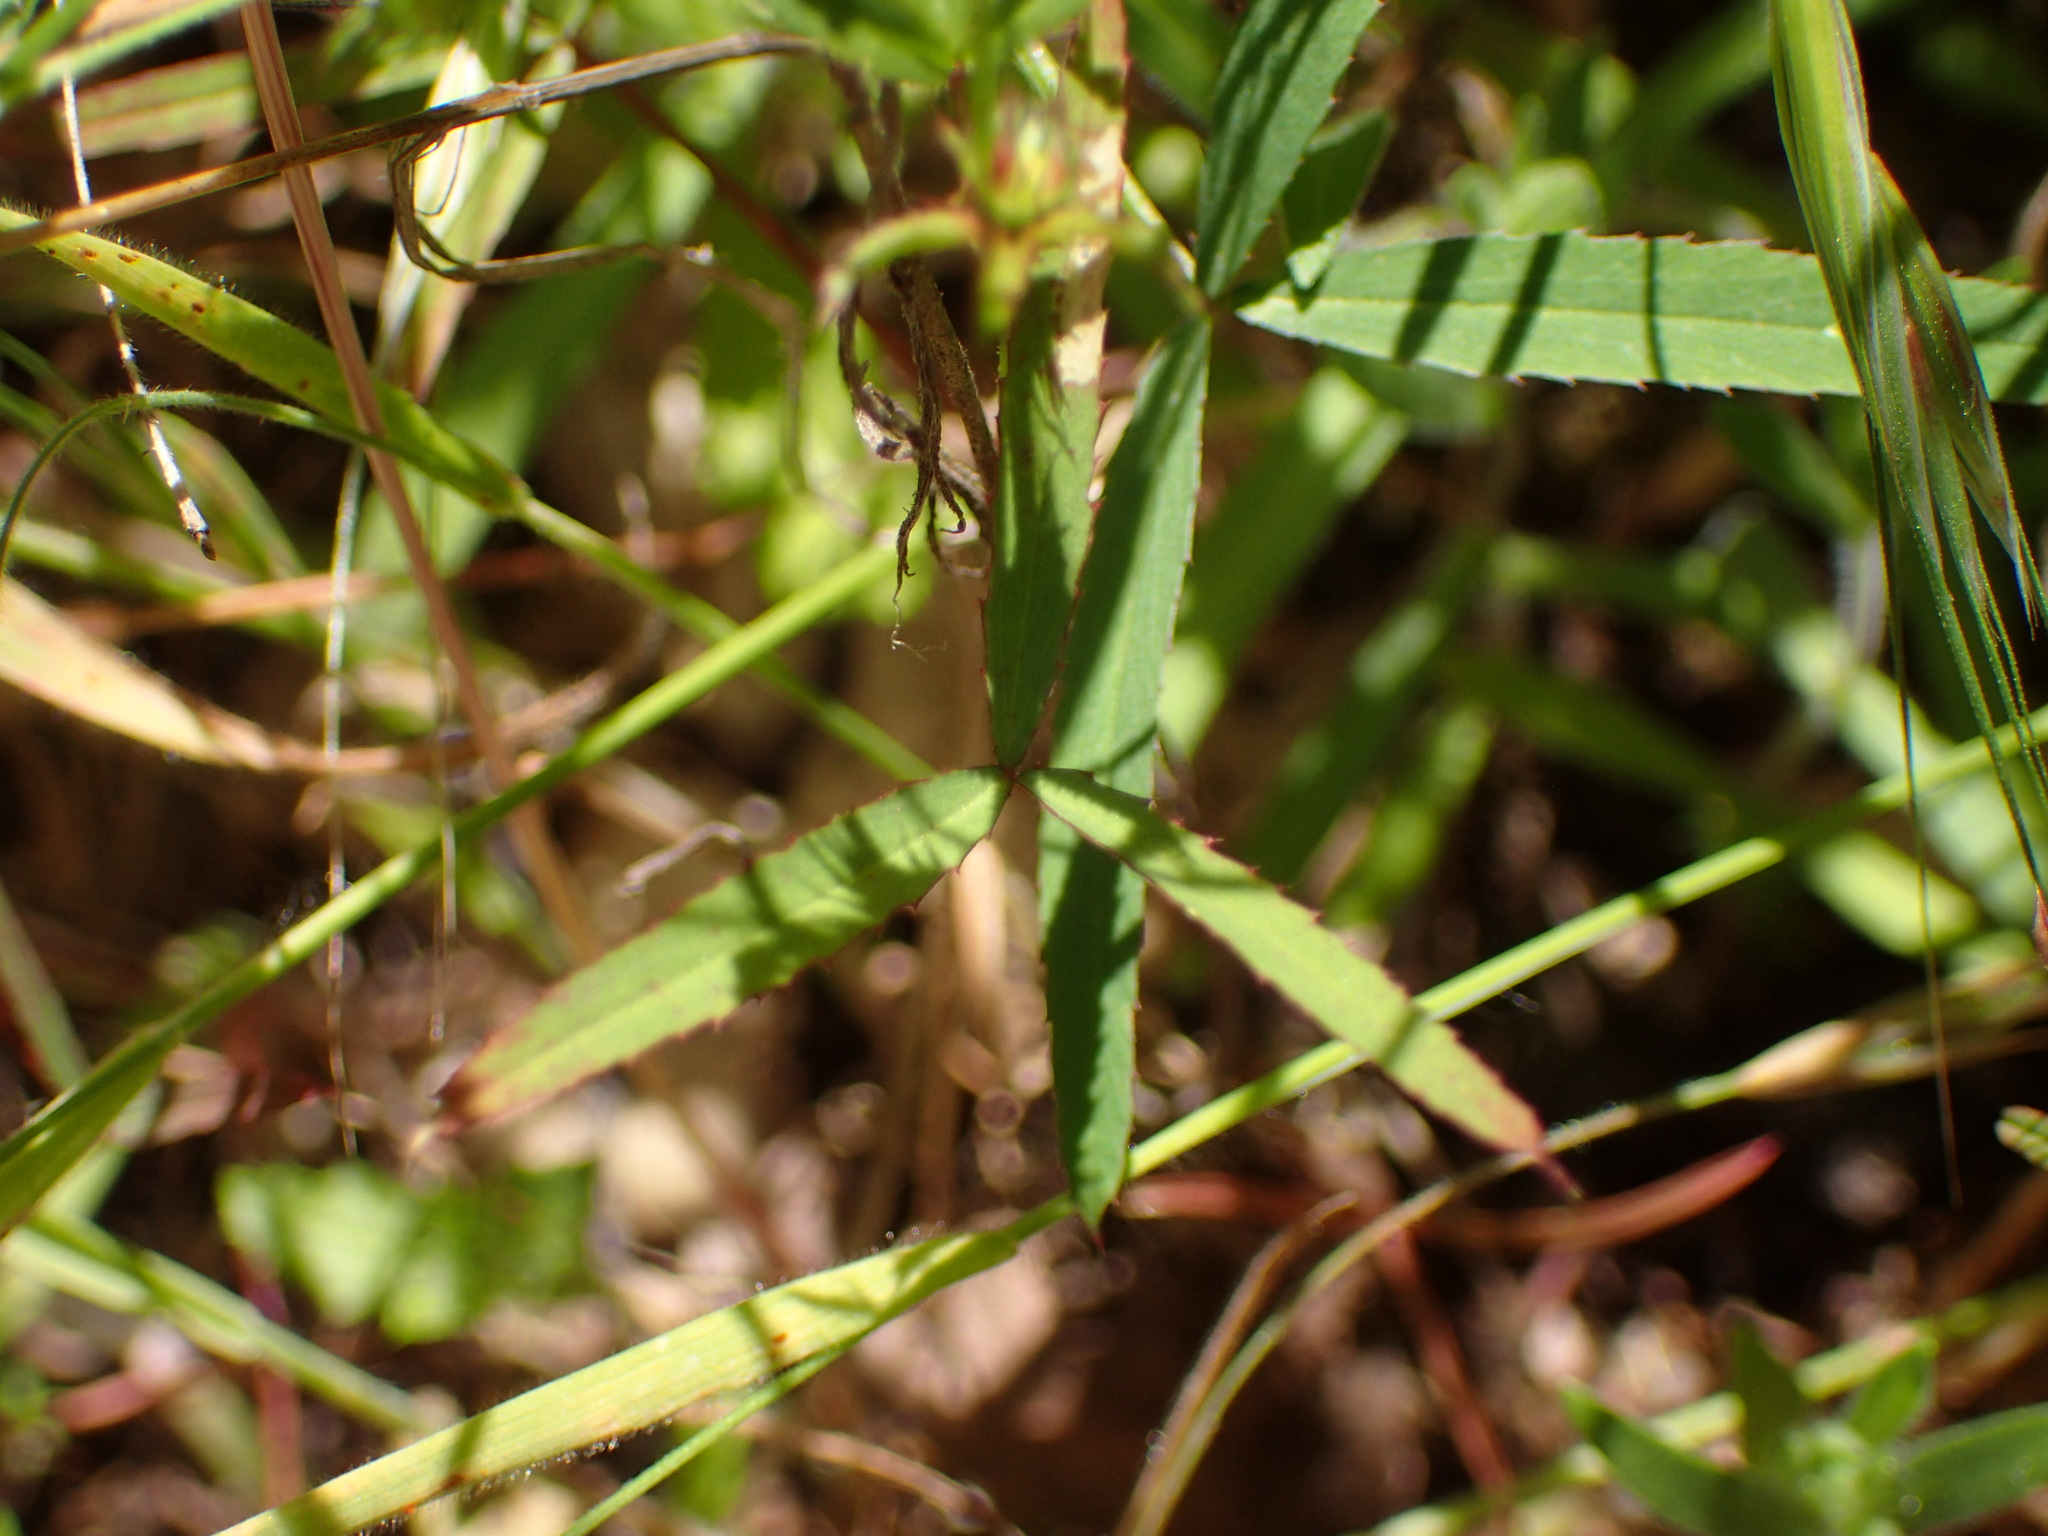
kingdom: Plantae
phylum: Tracheophyta
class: Magnoliopsida
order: Fabales
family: Fabaceae
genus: Trifolium
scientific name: Trifolium willdenovii
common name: Tomcat clover
